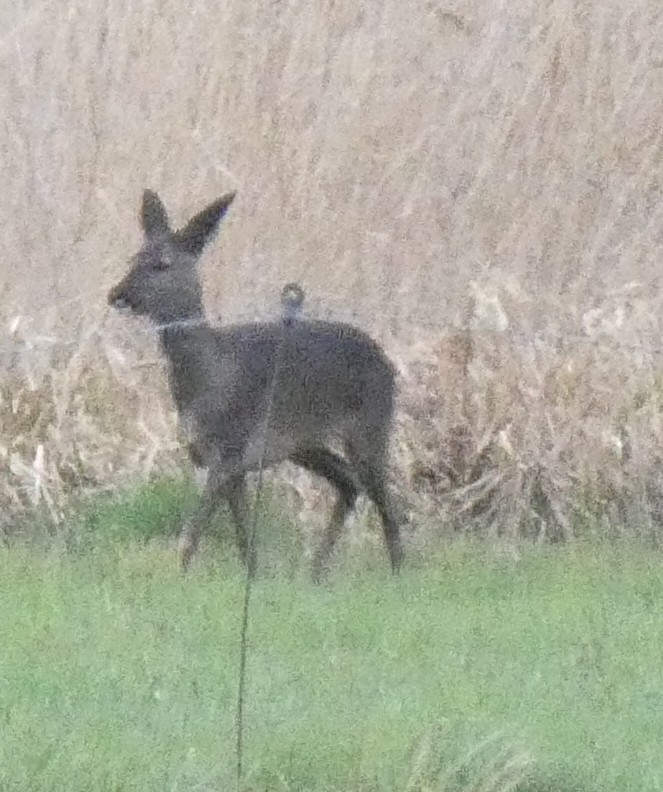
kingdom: Animalia
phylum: Chordata
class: Mammalia
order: Artiodactyla
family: Cervidae
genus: Capreolus
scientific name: Capreolus capreolus
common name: Western roe deer
